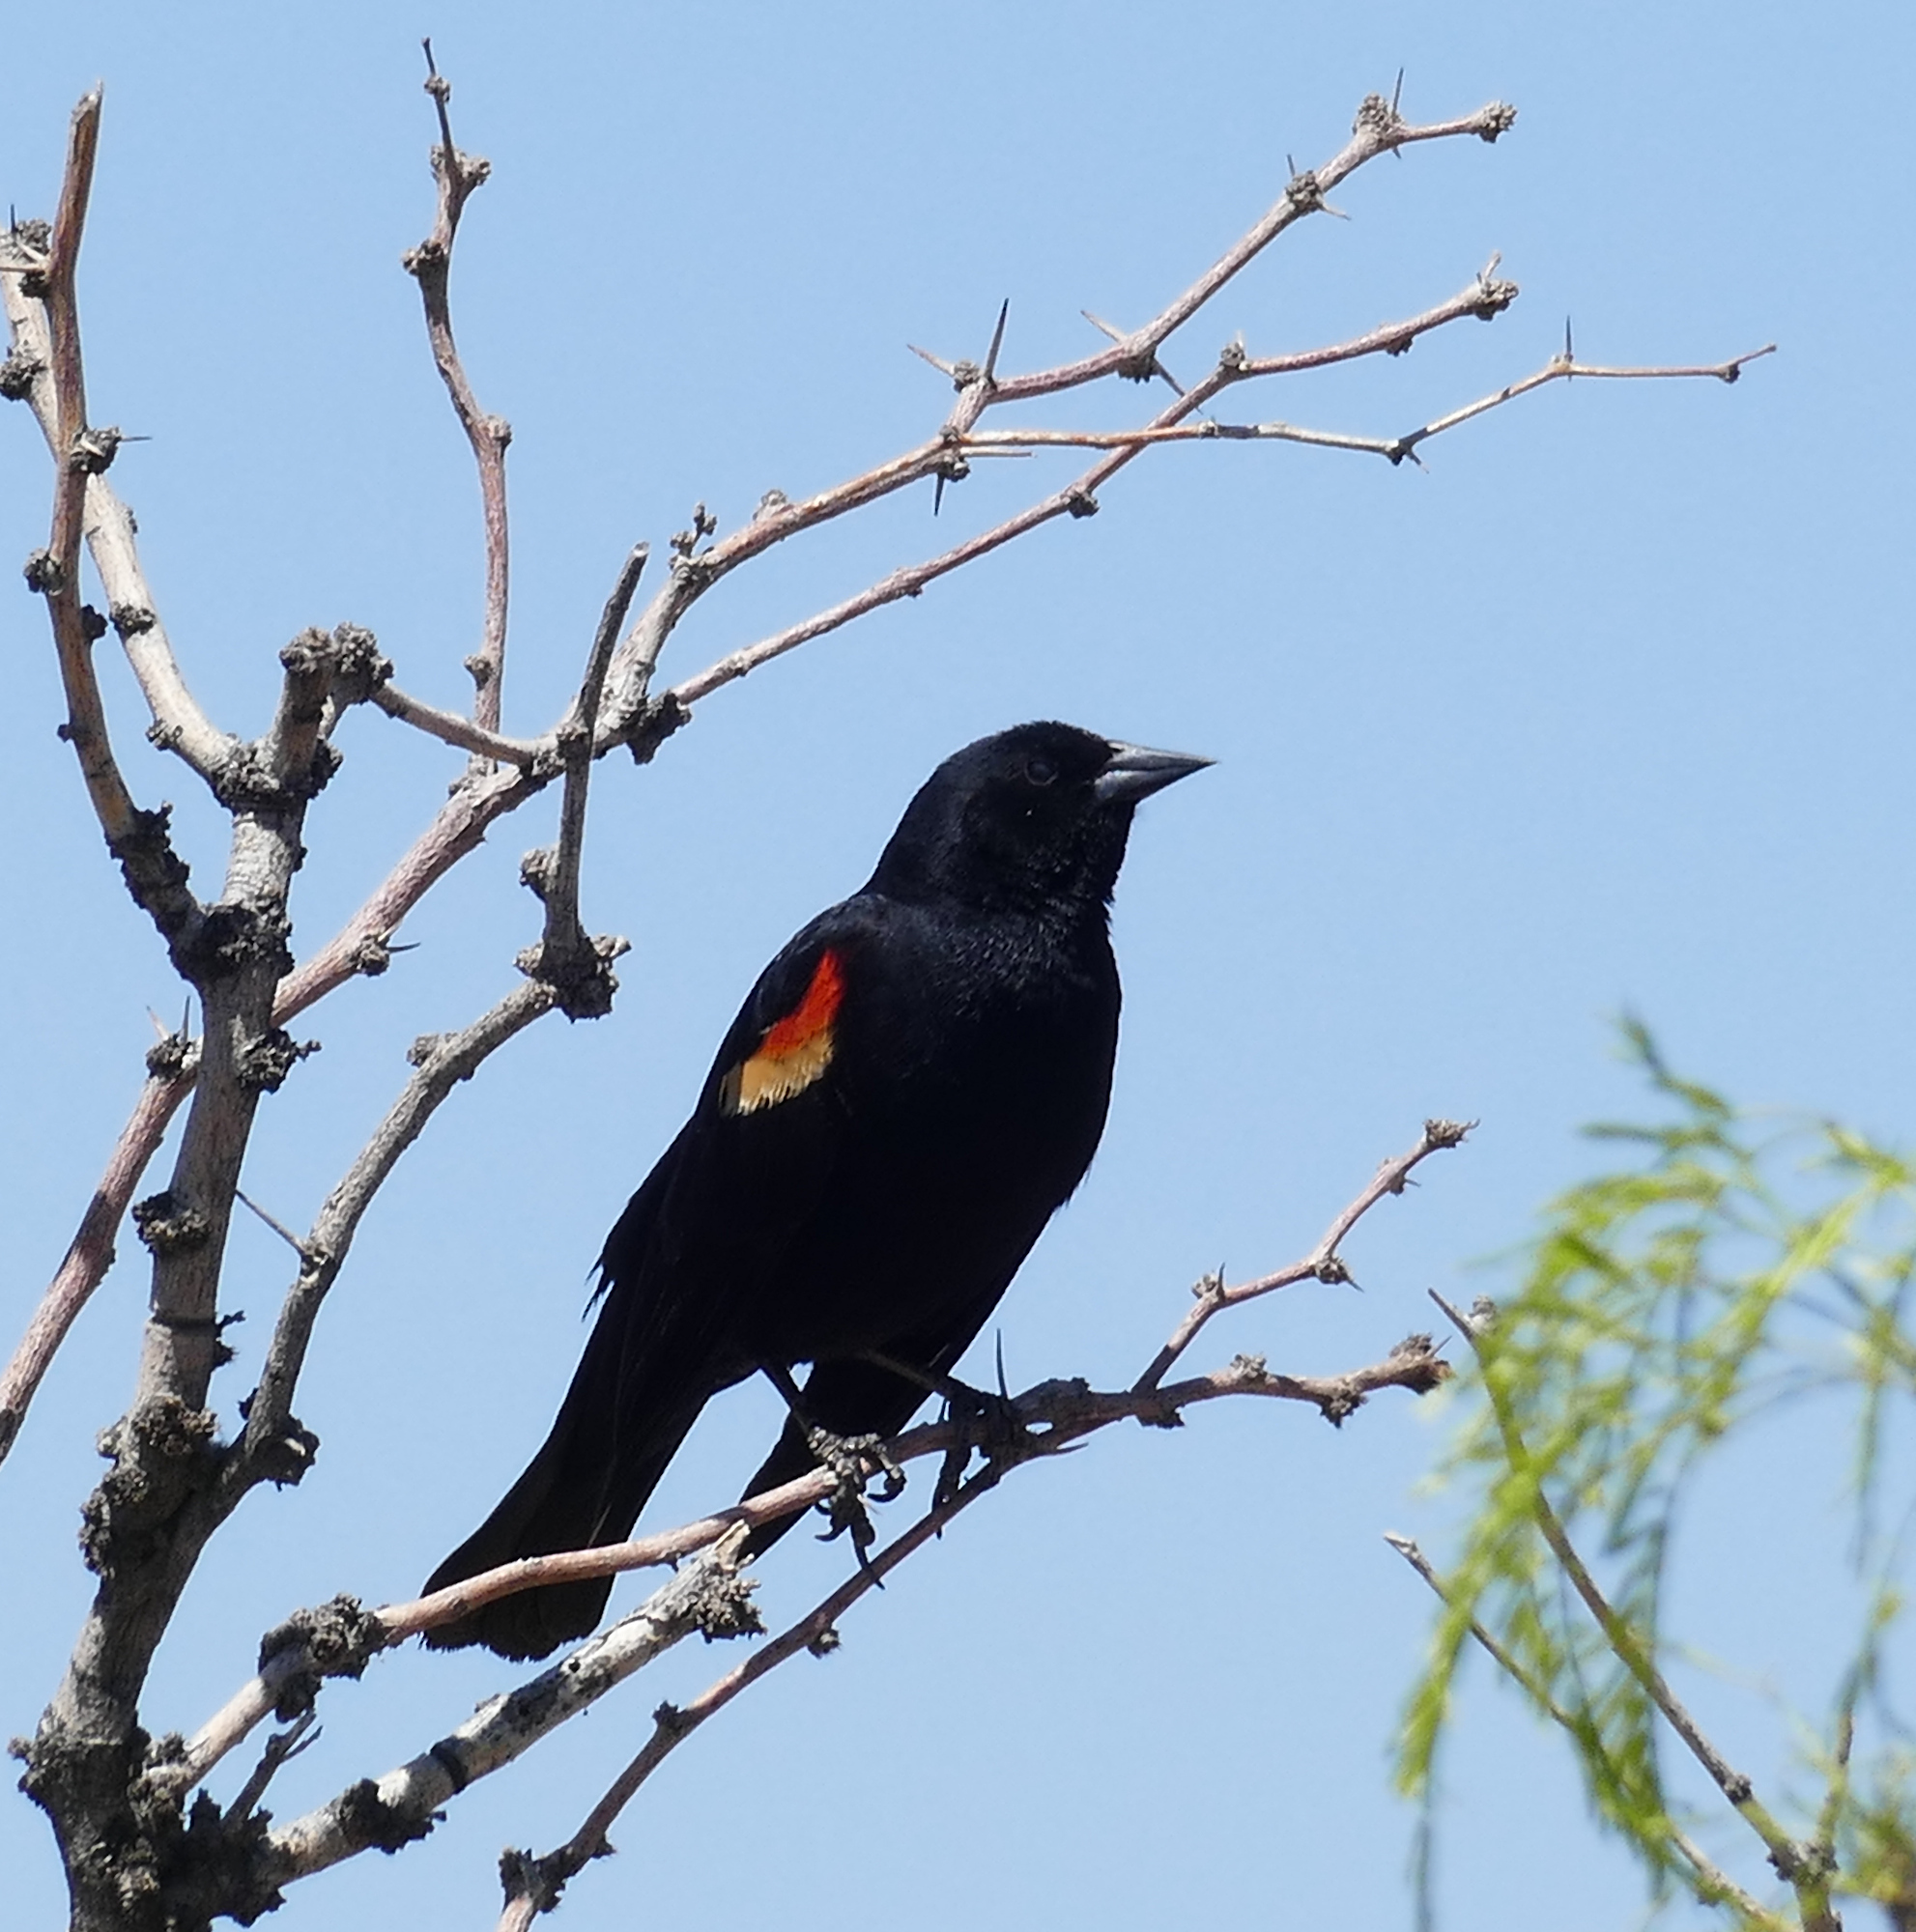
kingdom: Animalia
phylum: Chordata
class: Aves
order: Passeriformes
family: Icteridae
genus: Agelaius
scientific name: Agelaius phoeniceus
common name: Red-winged blackbird
